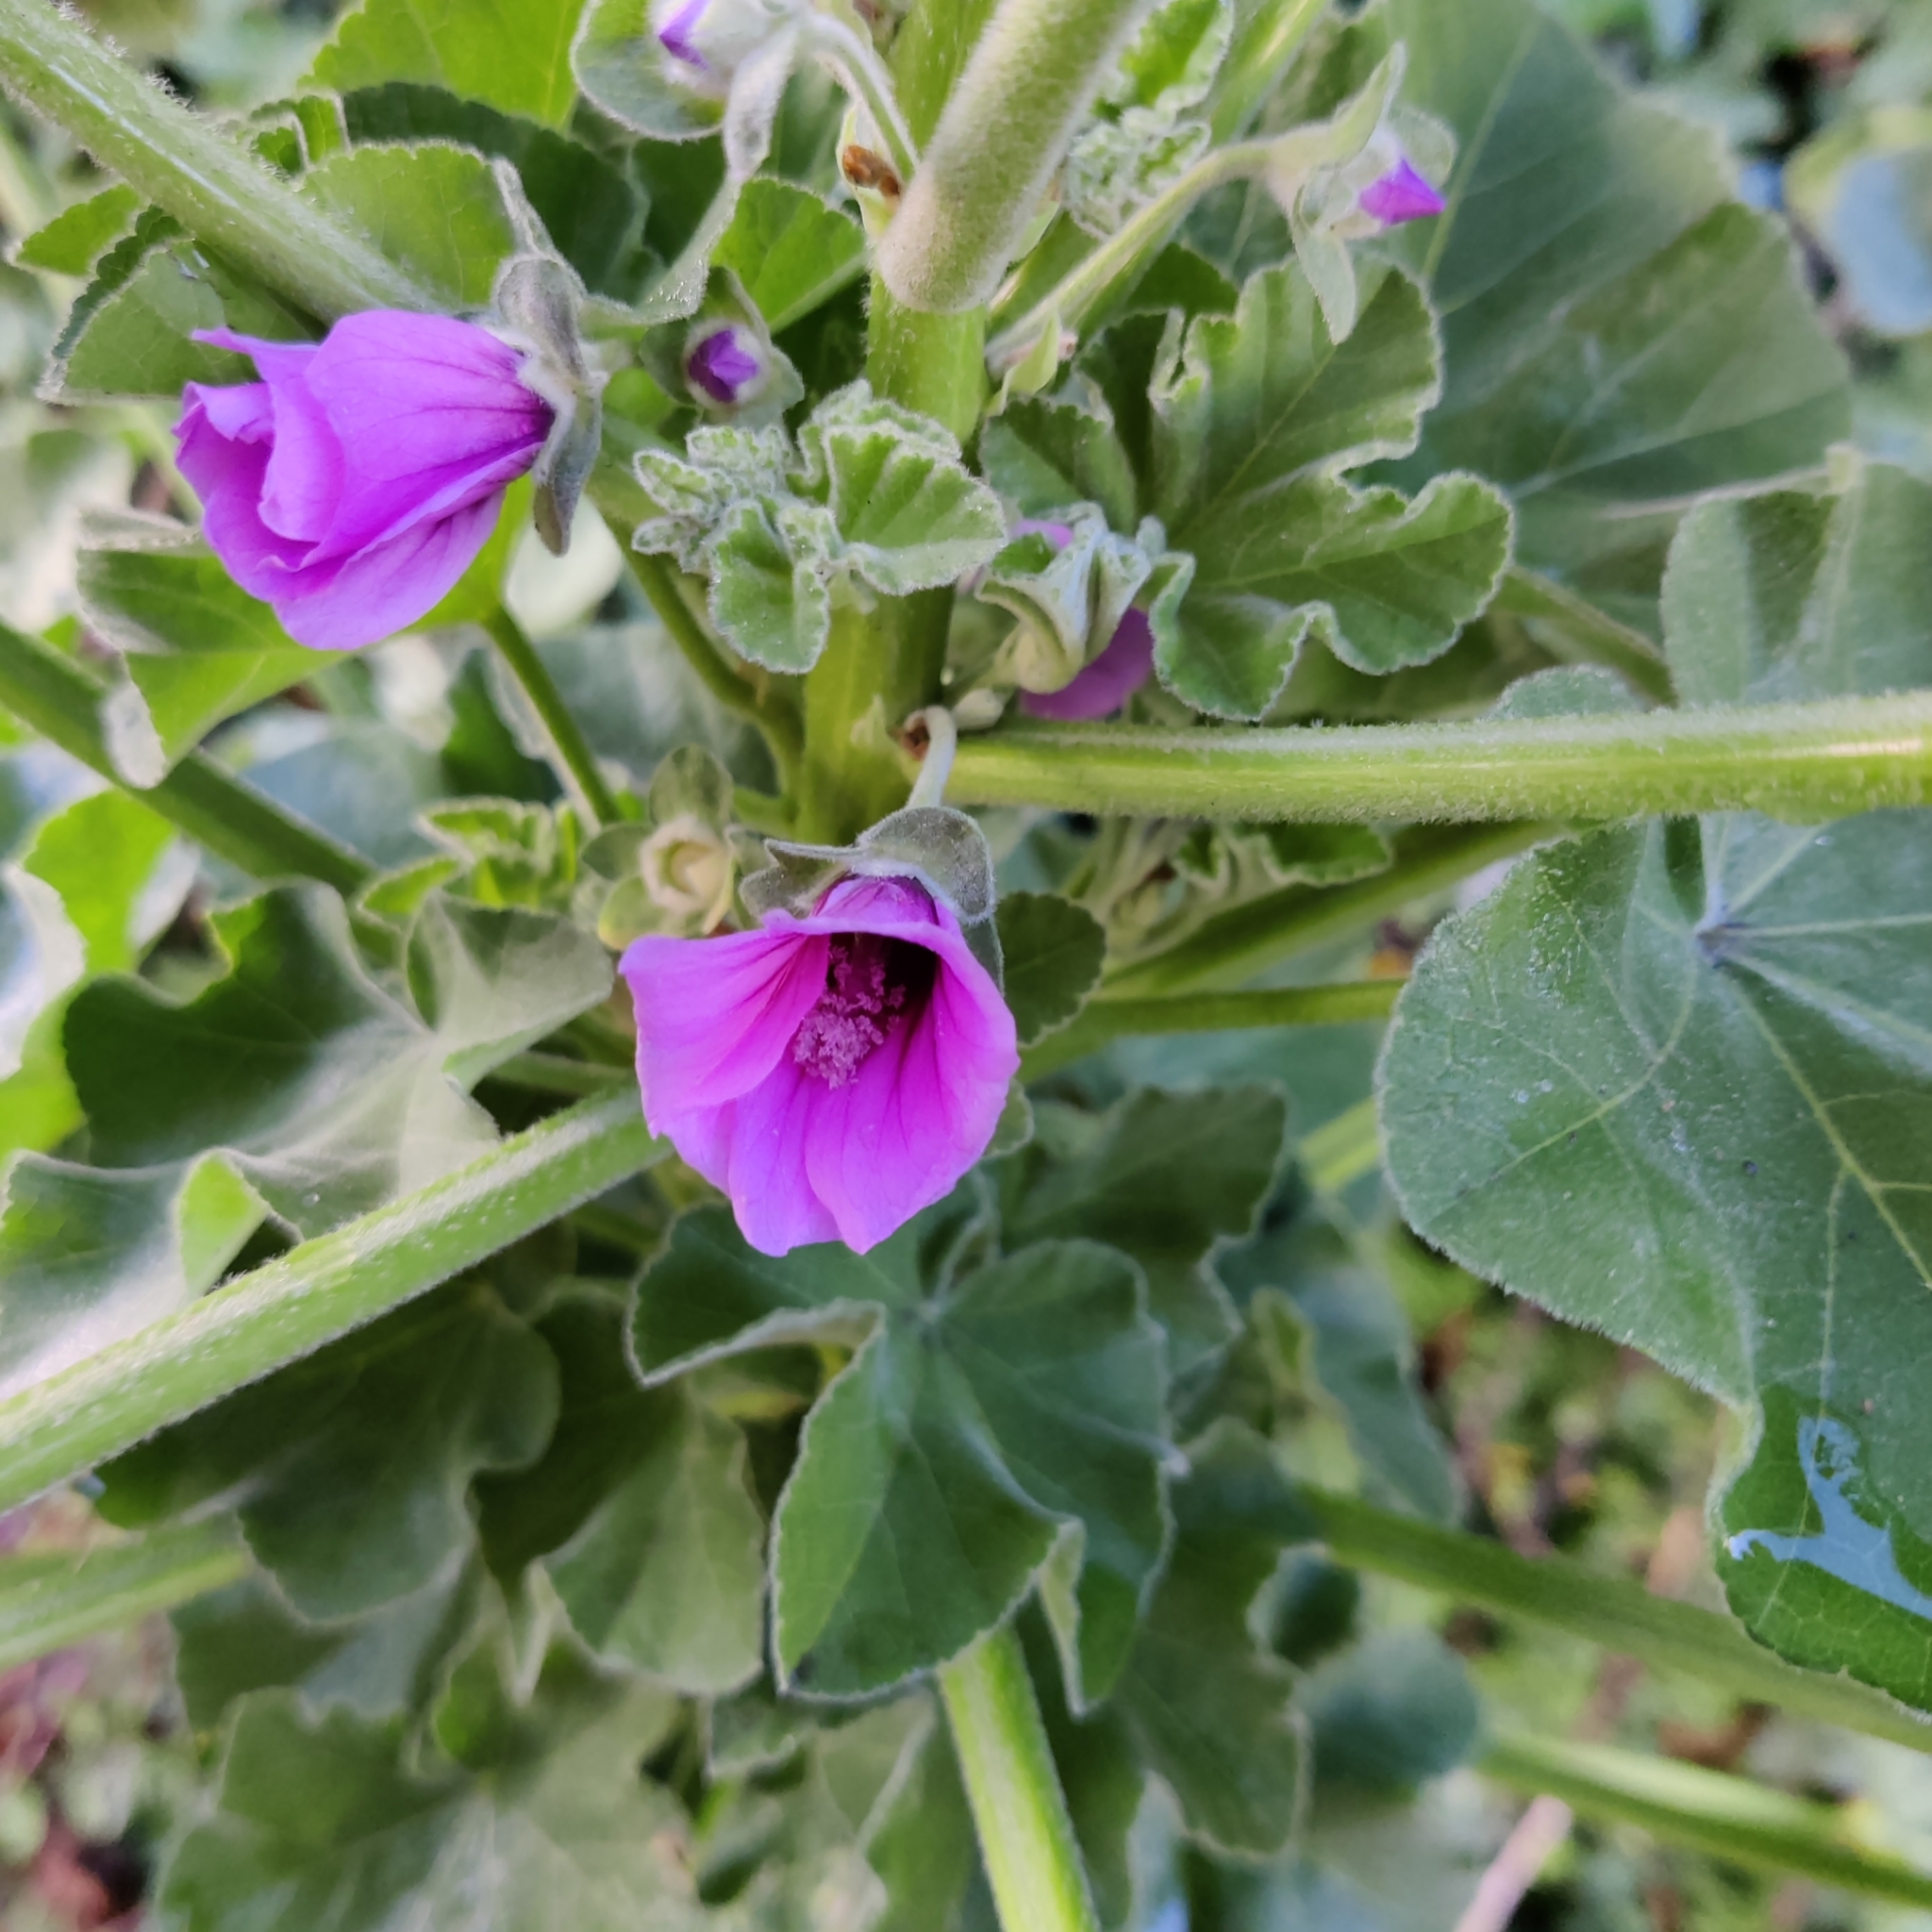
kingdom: Plantae
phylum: Tracheophyta
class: Magnoliopsida
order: Malvales
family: Malvaceae
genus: Malva
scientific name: Malva arborea
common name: Tree mallow
